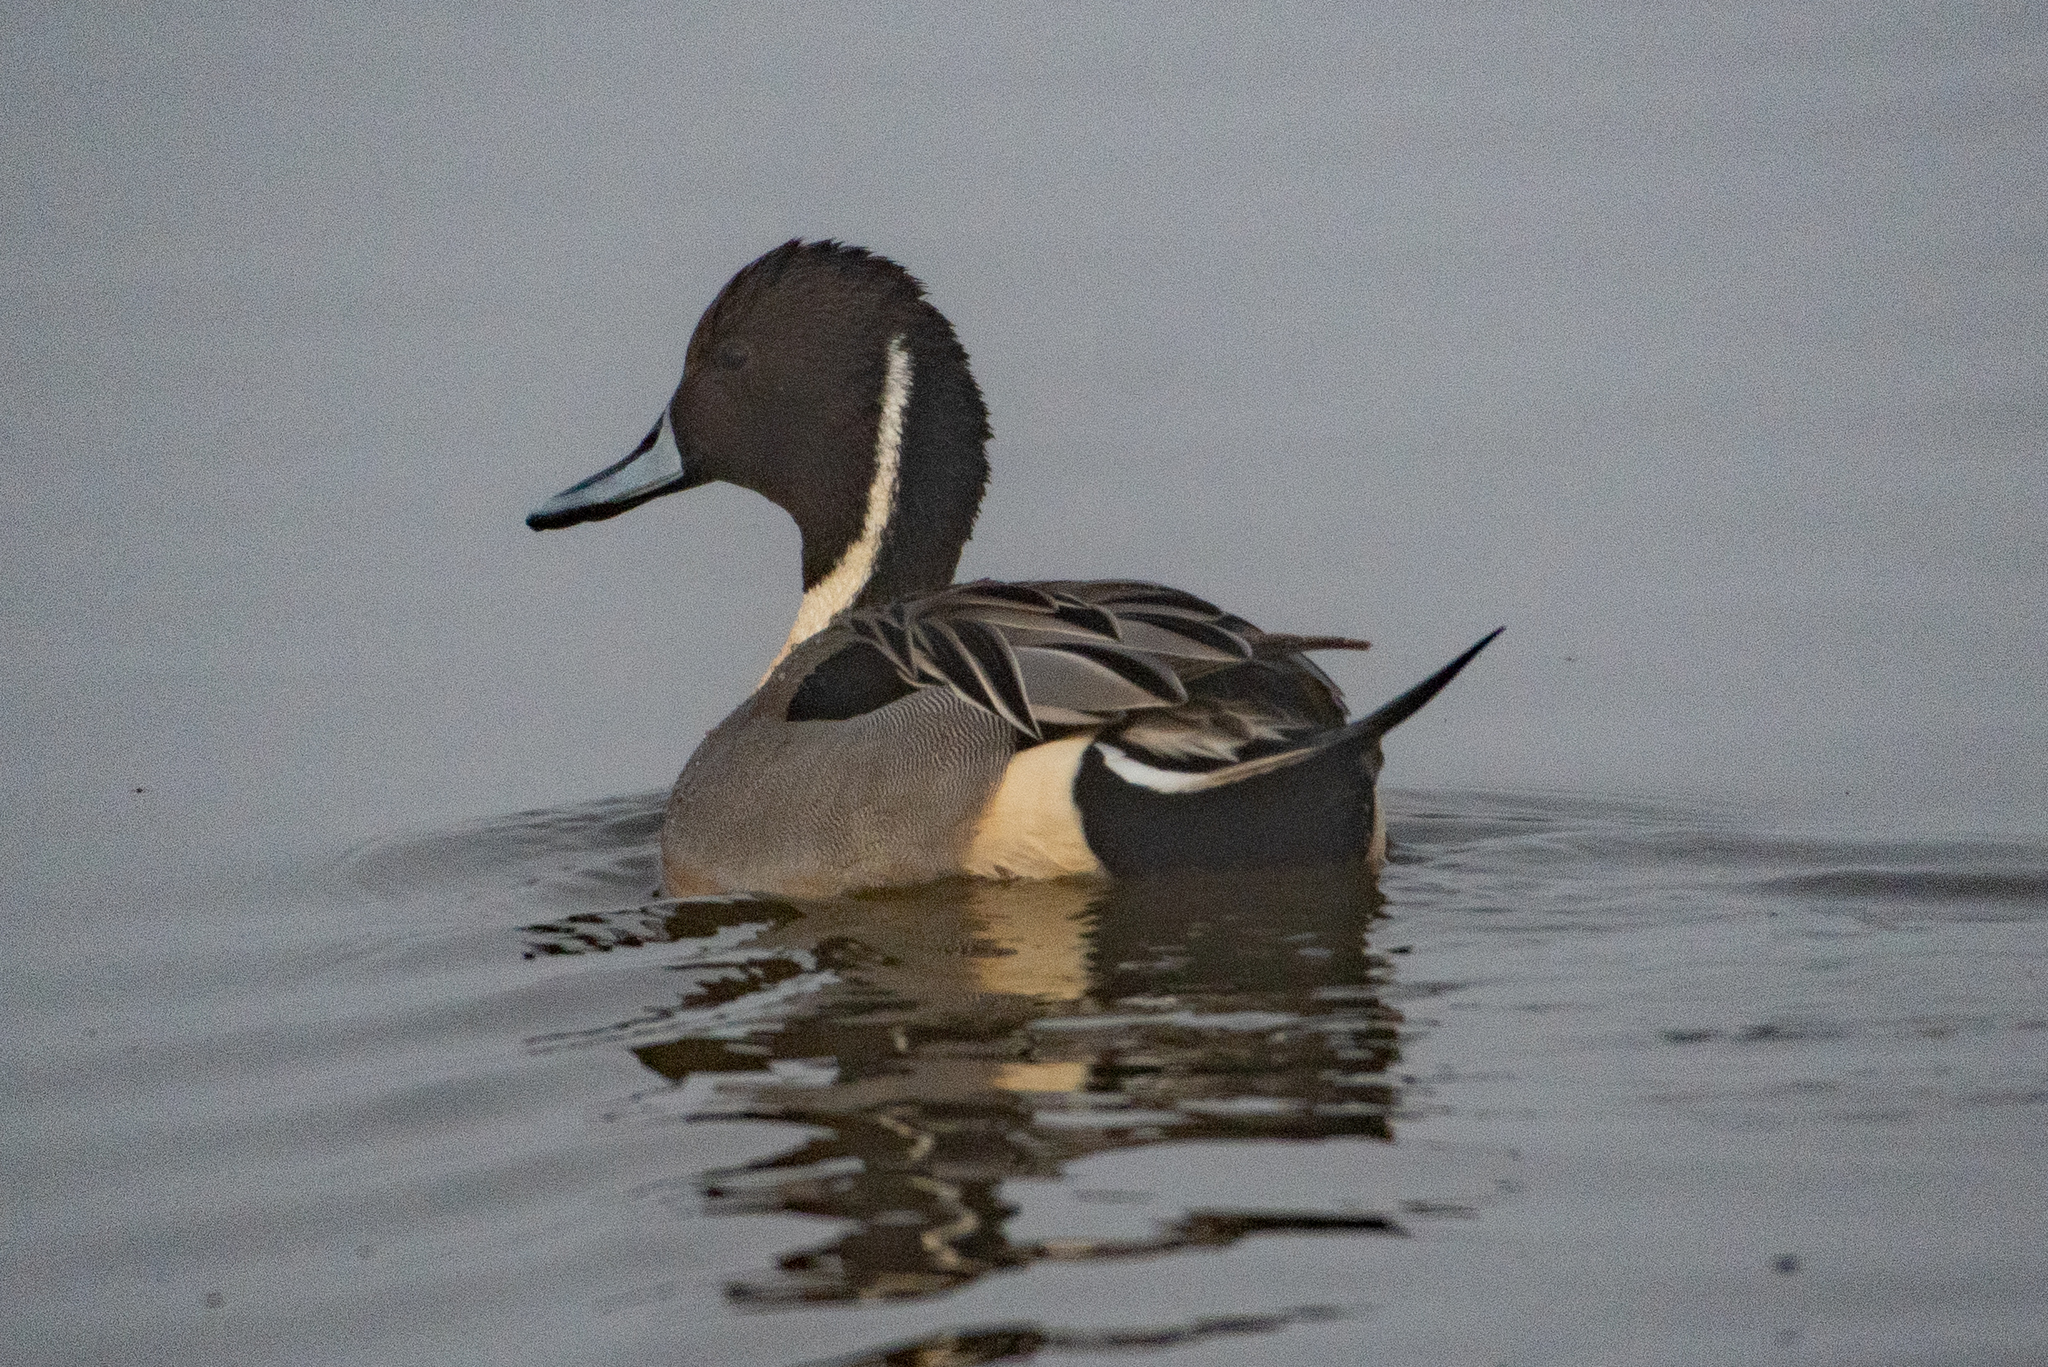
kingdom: Animalia
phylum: Chordata
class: Aves
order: Anseriformes
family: Anatidae
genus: Anas
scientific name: Anas acuta
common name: Northern pintail
